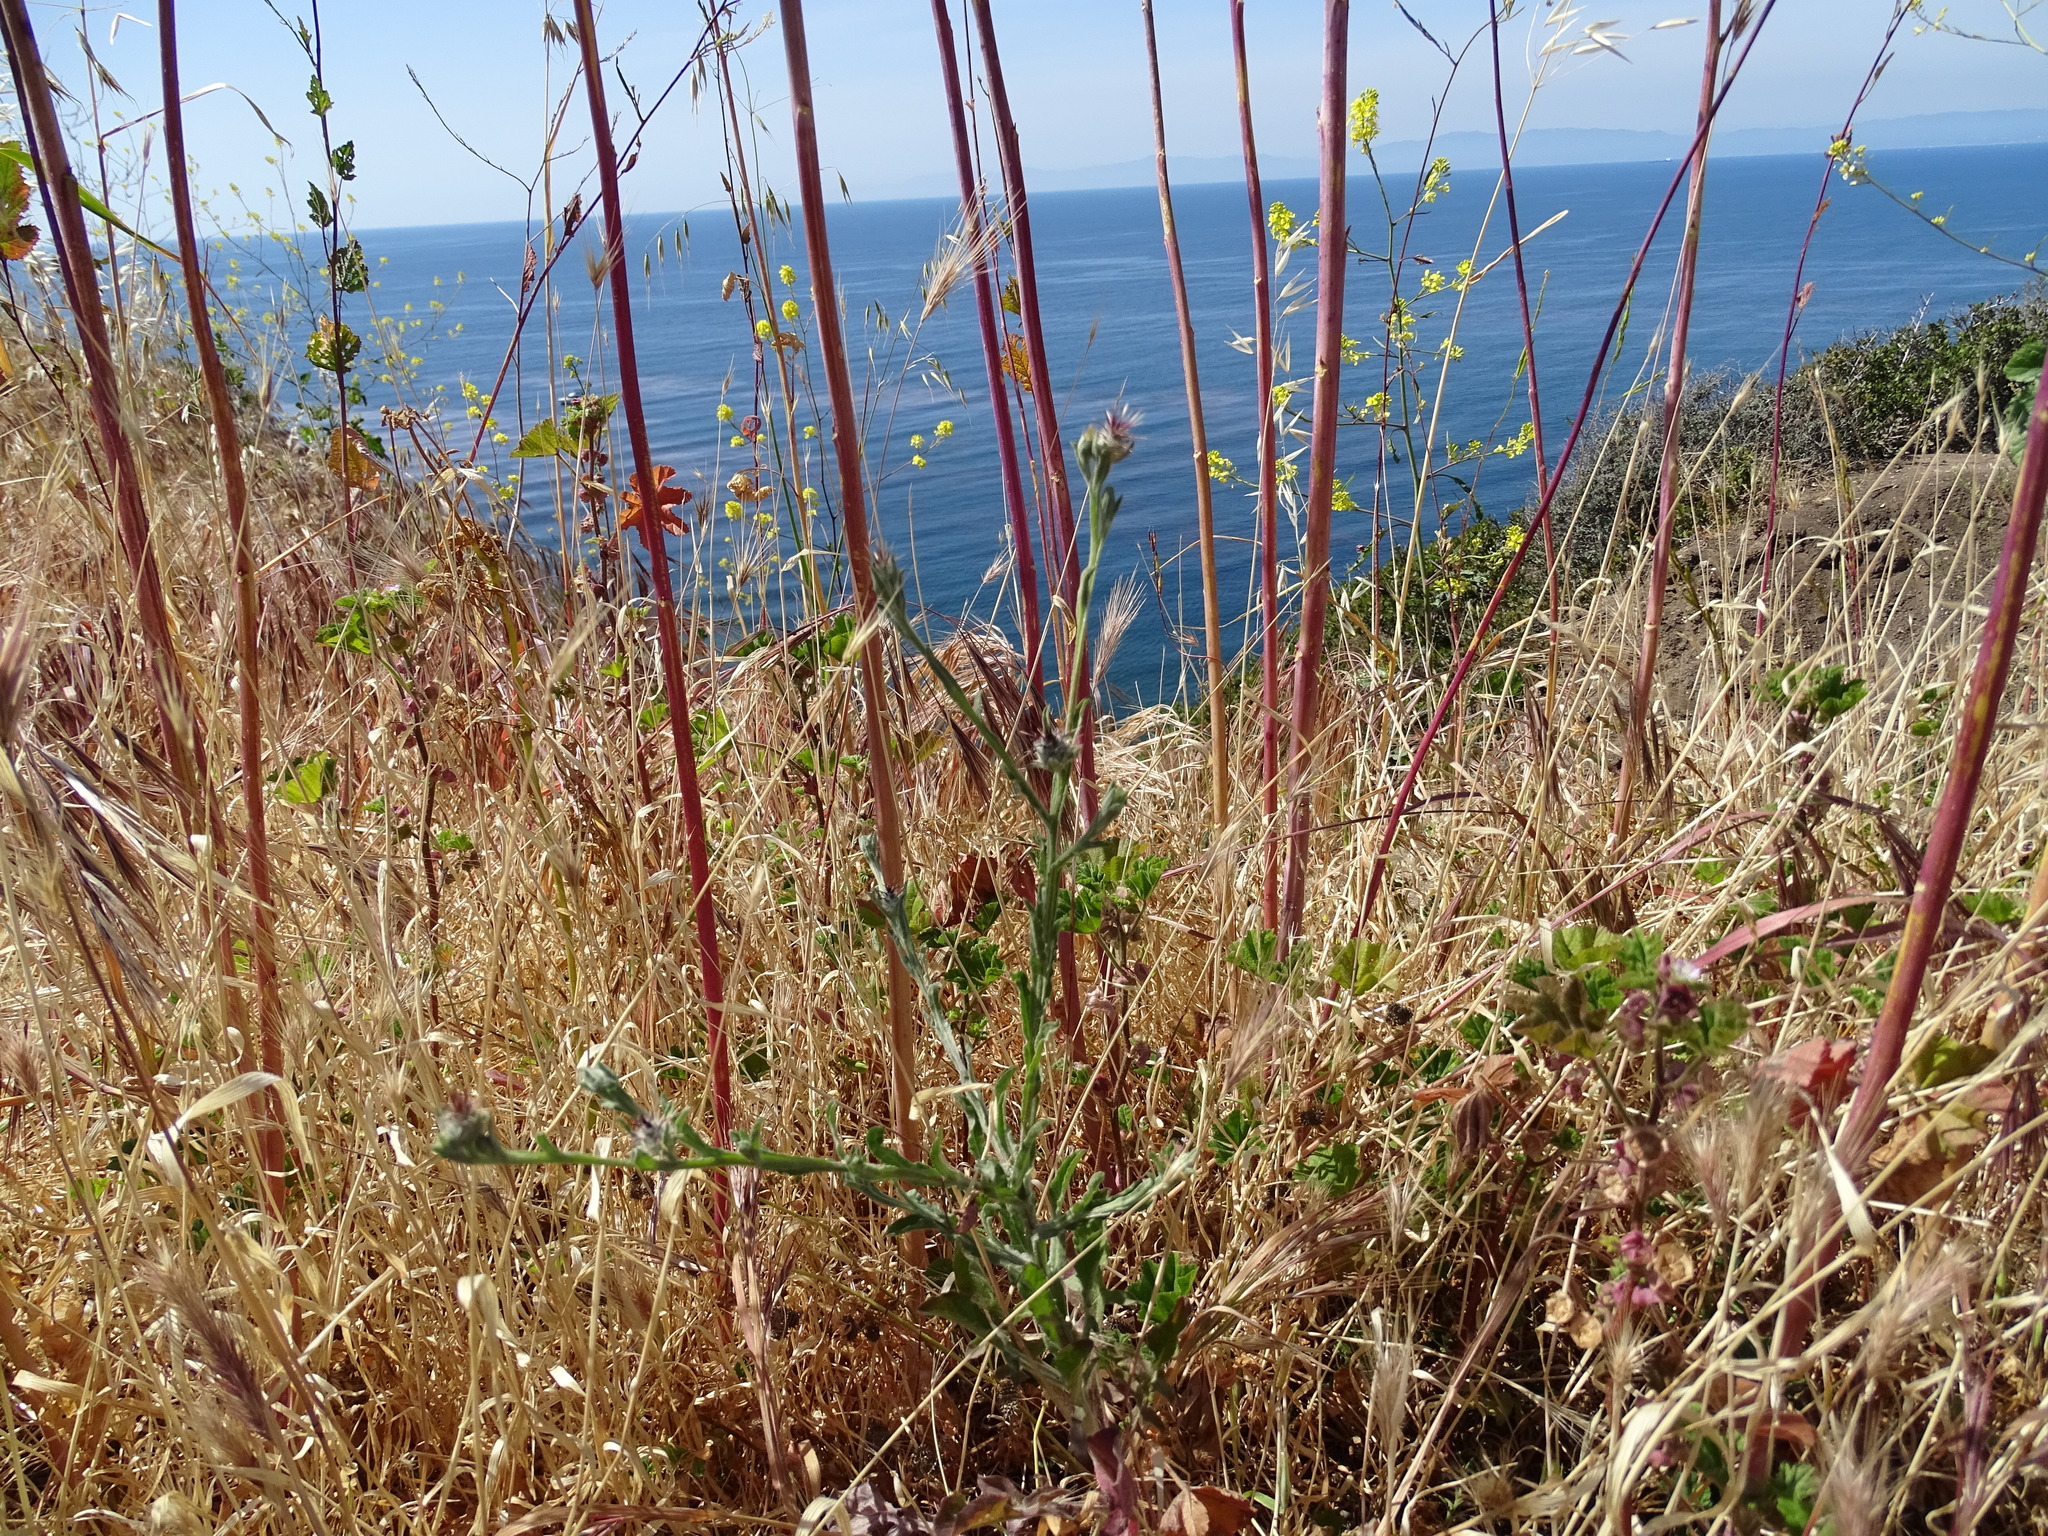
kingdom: Plantae
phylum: Tracheophyta
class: Magnoliopsida
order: Asterales
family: Asteraceae
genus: Centaurea
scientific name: Centaurea melitensis
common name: Maltese star-thistle
